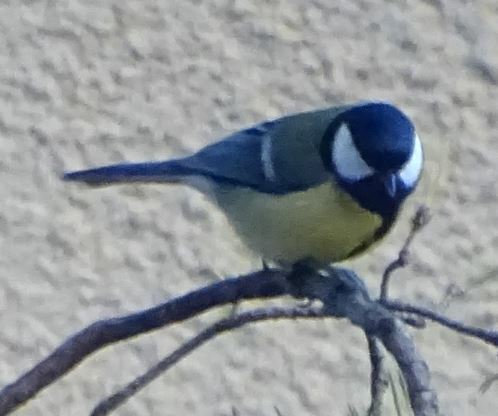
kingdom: Animalia
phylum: Chordata
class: Aves
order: Passeriformes
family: Paridae
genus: Parus
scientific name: Parus major
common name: Great tit
